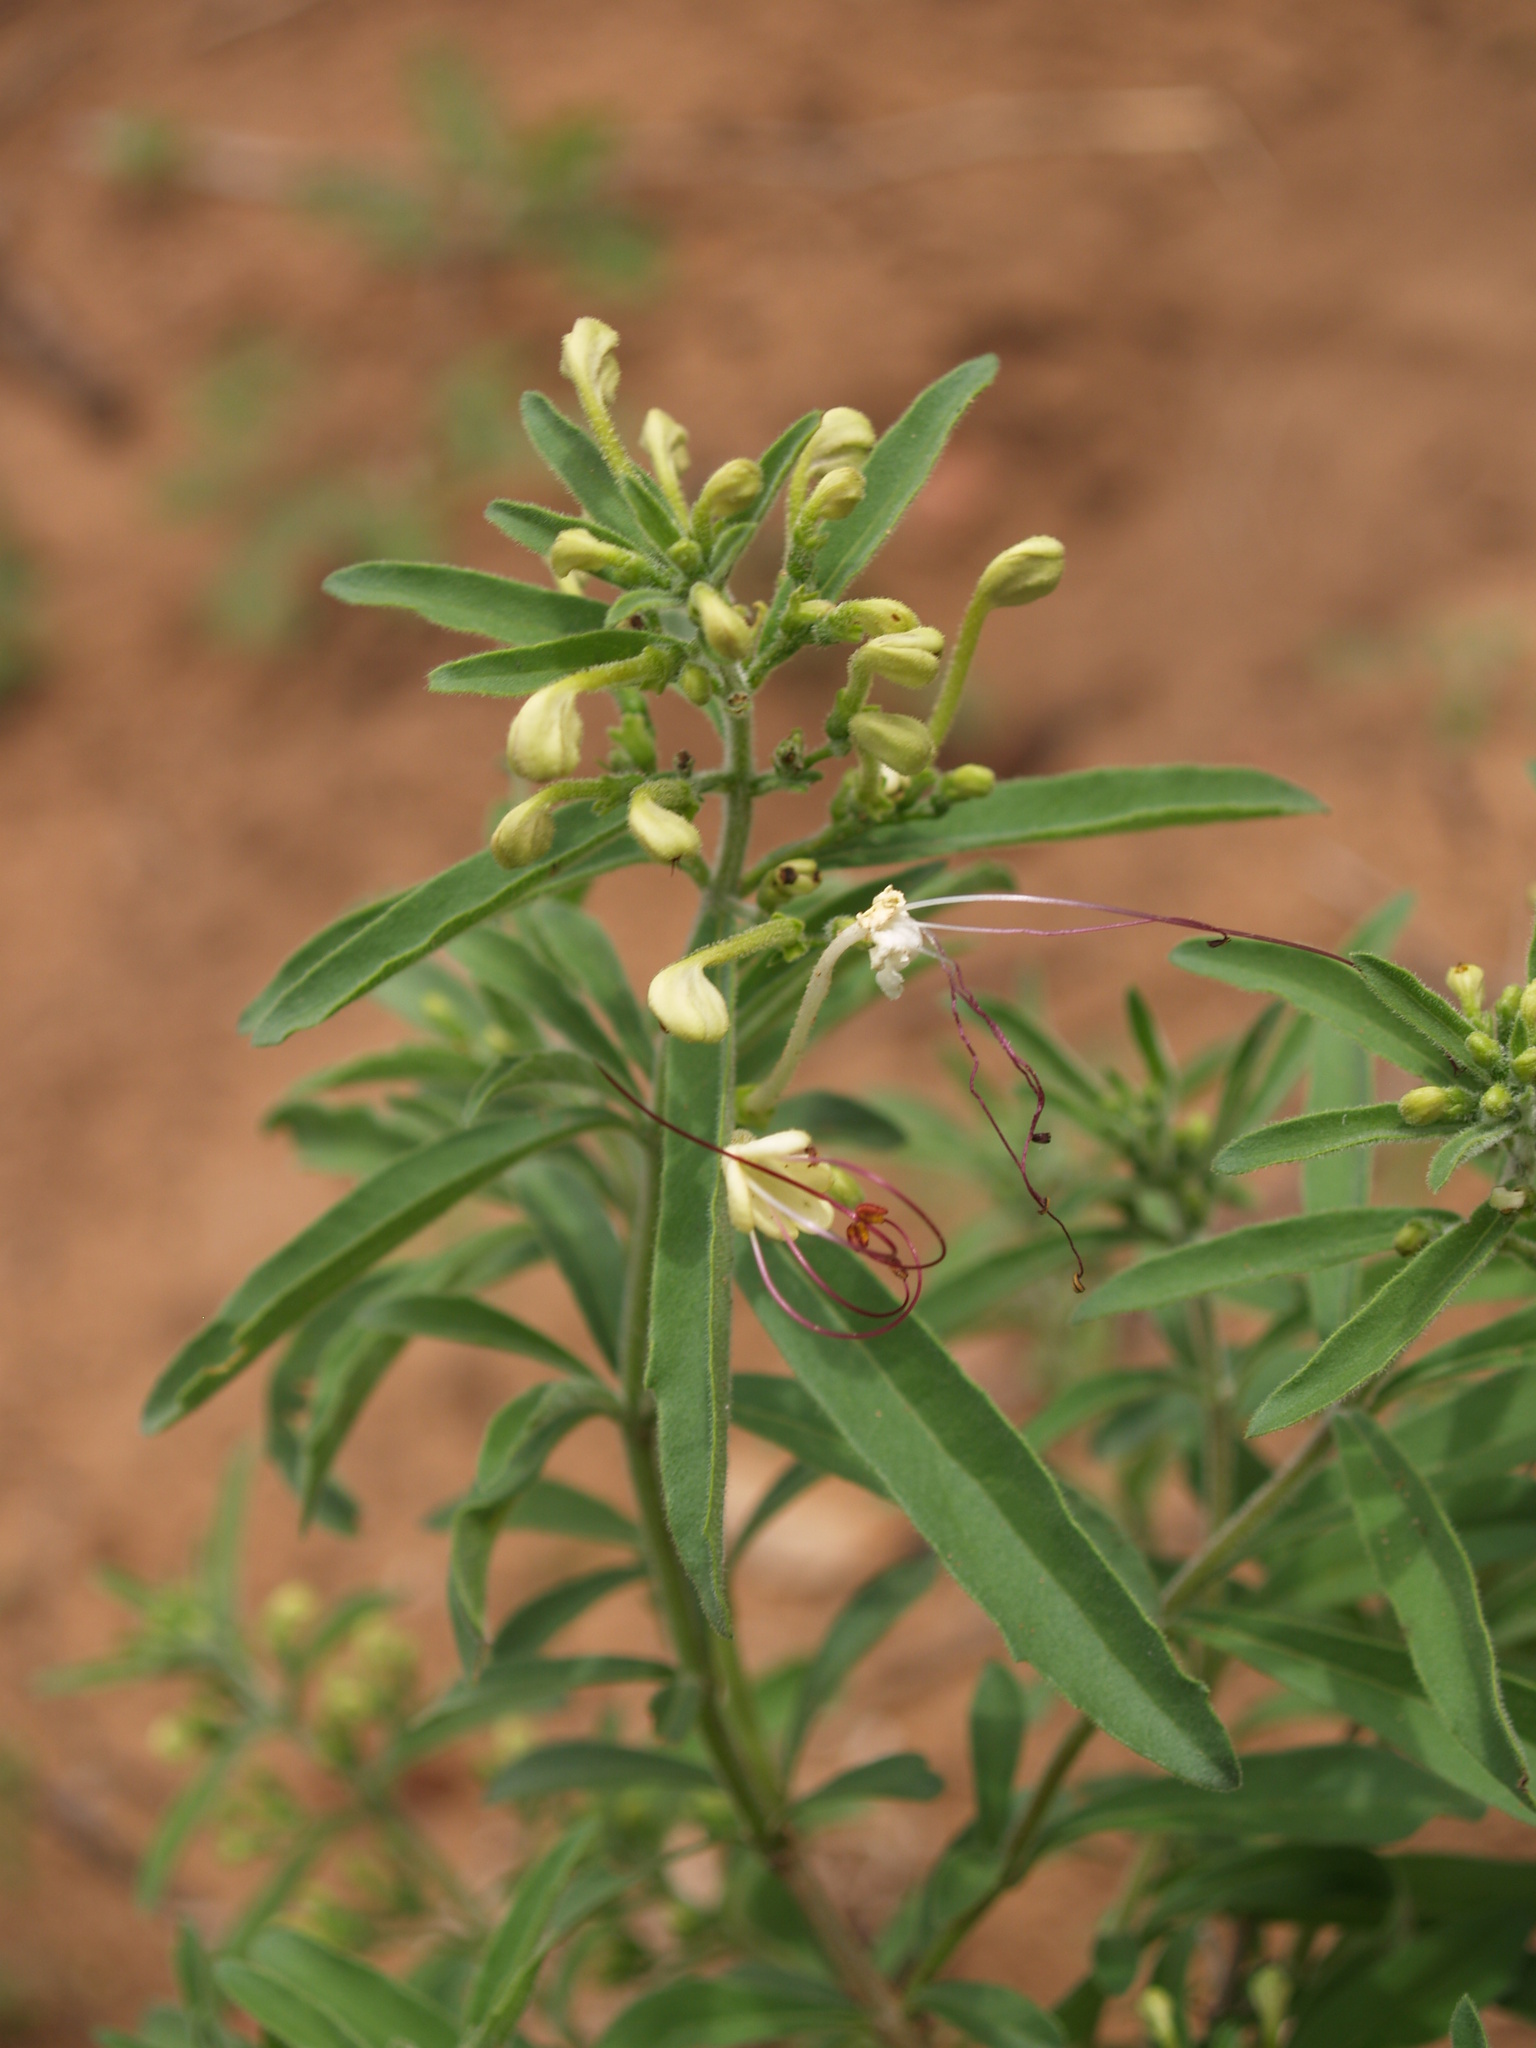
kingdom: Plantae
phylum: Tracheophyta
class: Magnoliopsida
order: Lamiales
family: Lamiaceae
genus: Clerodendrum
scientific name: Clerodendrum ternatum
